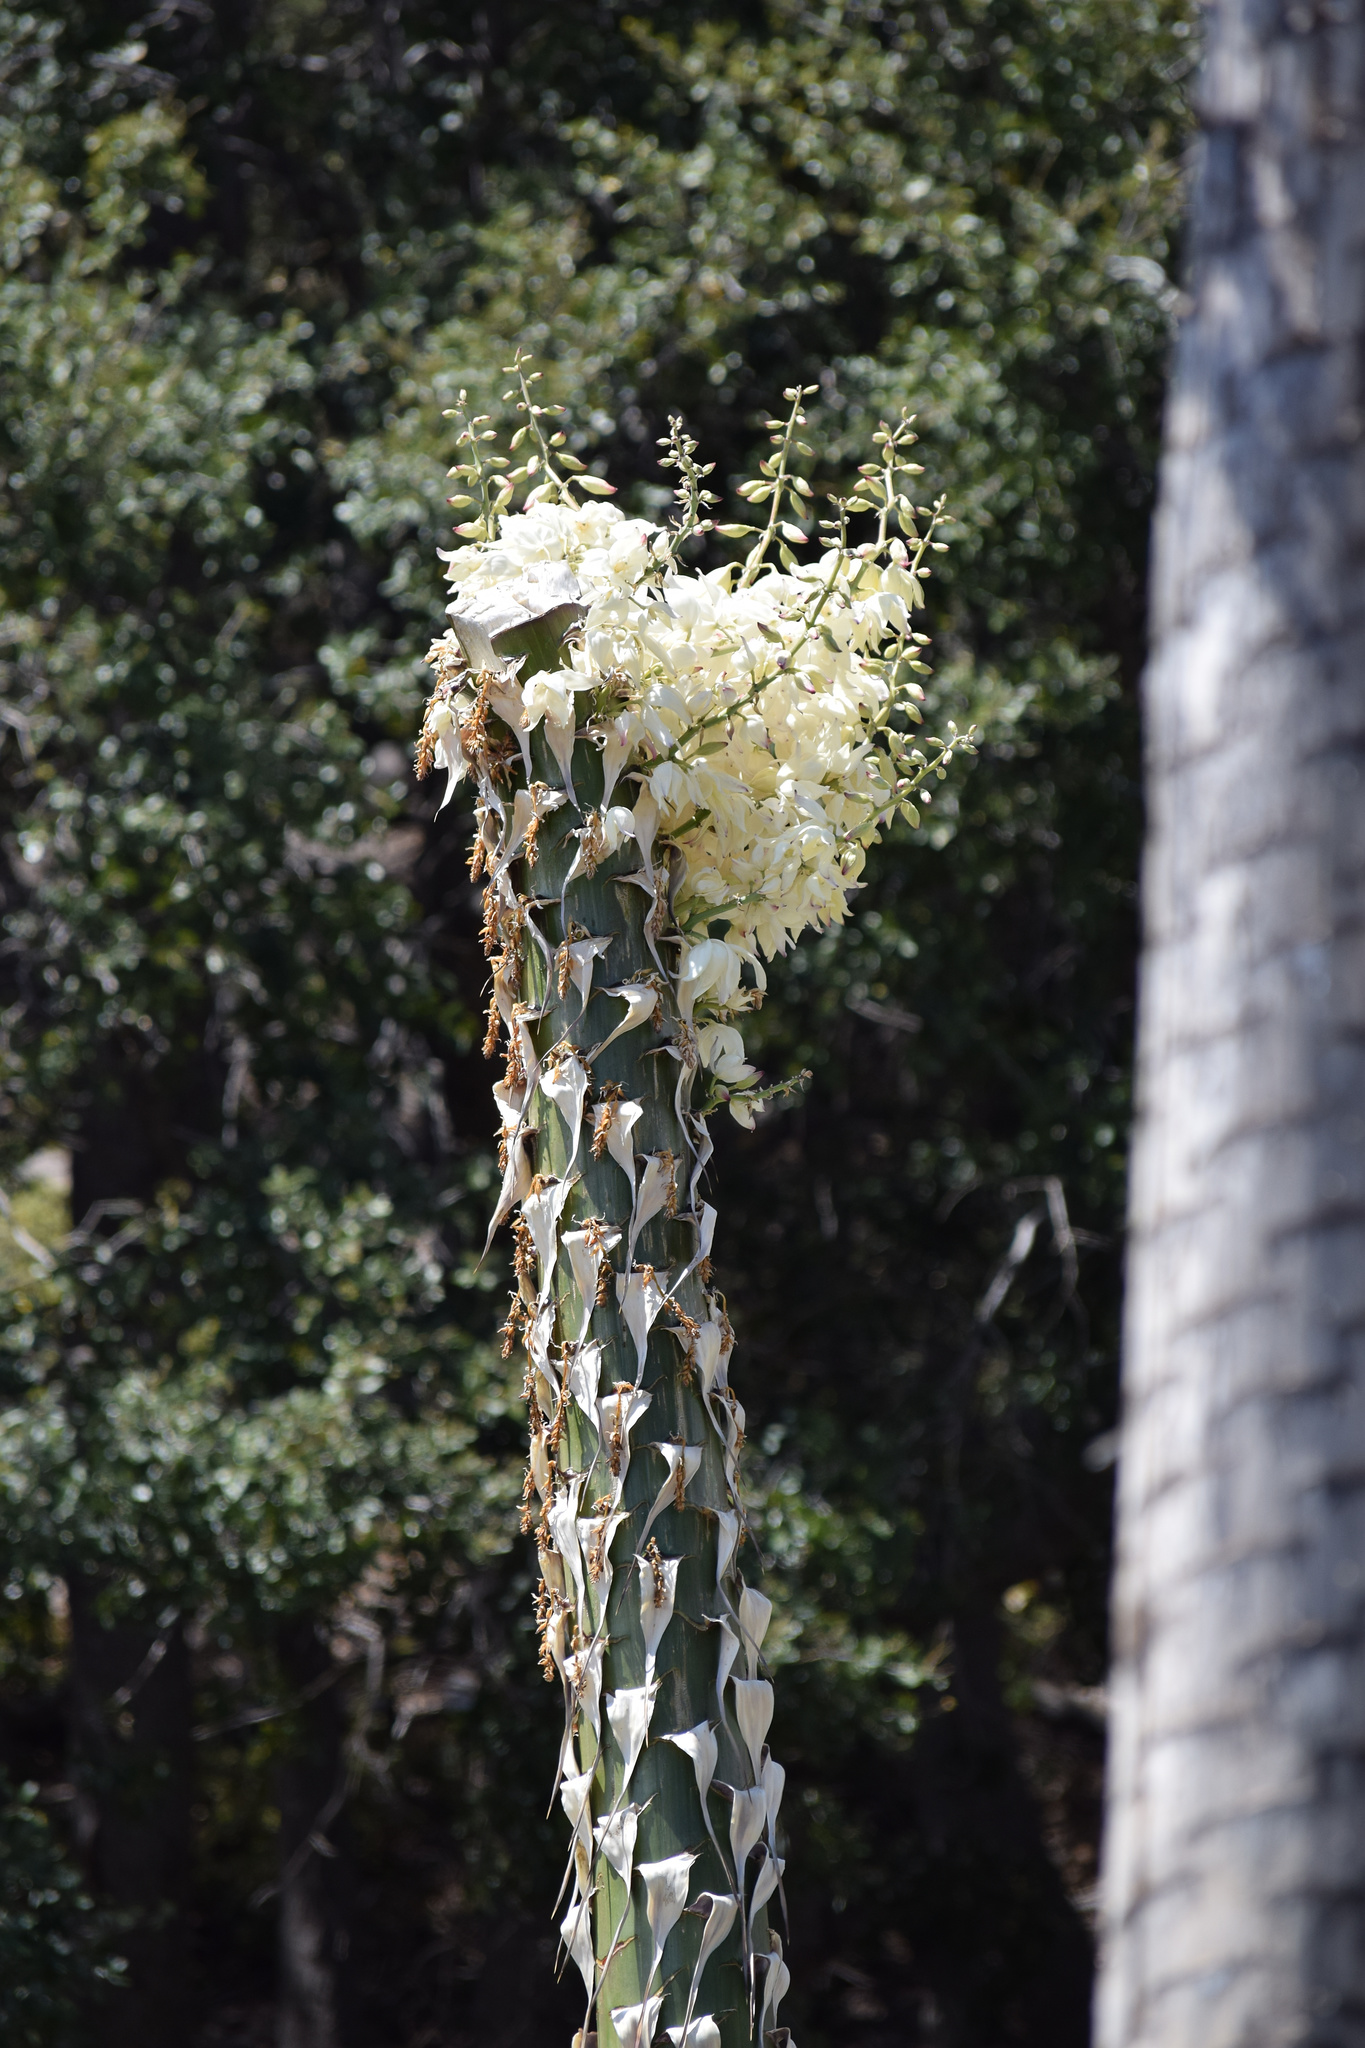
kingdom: Plantae
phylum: Tracheophyta
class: Liliopsida
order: Asparagales
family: Asparagaceae
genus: Hesperoyucca
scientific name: Hesperoyucca whipplei
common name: Our lord's-candle
